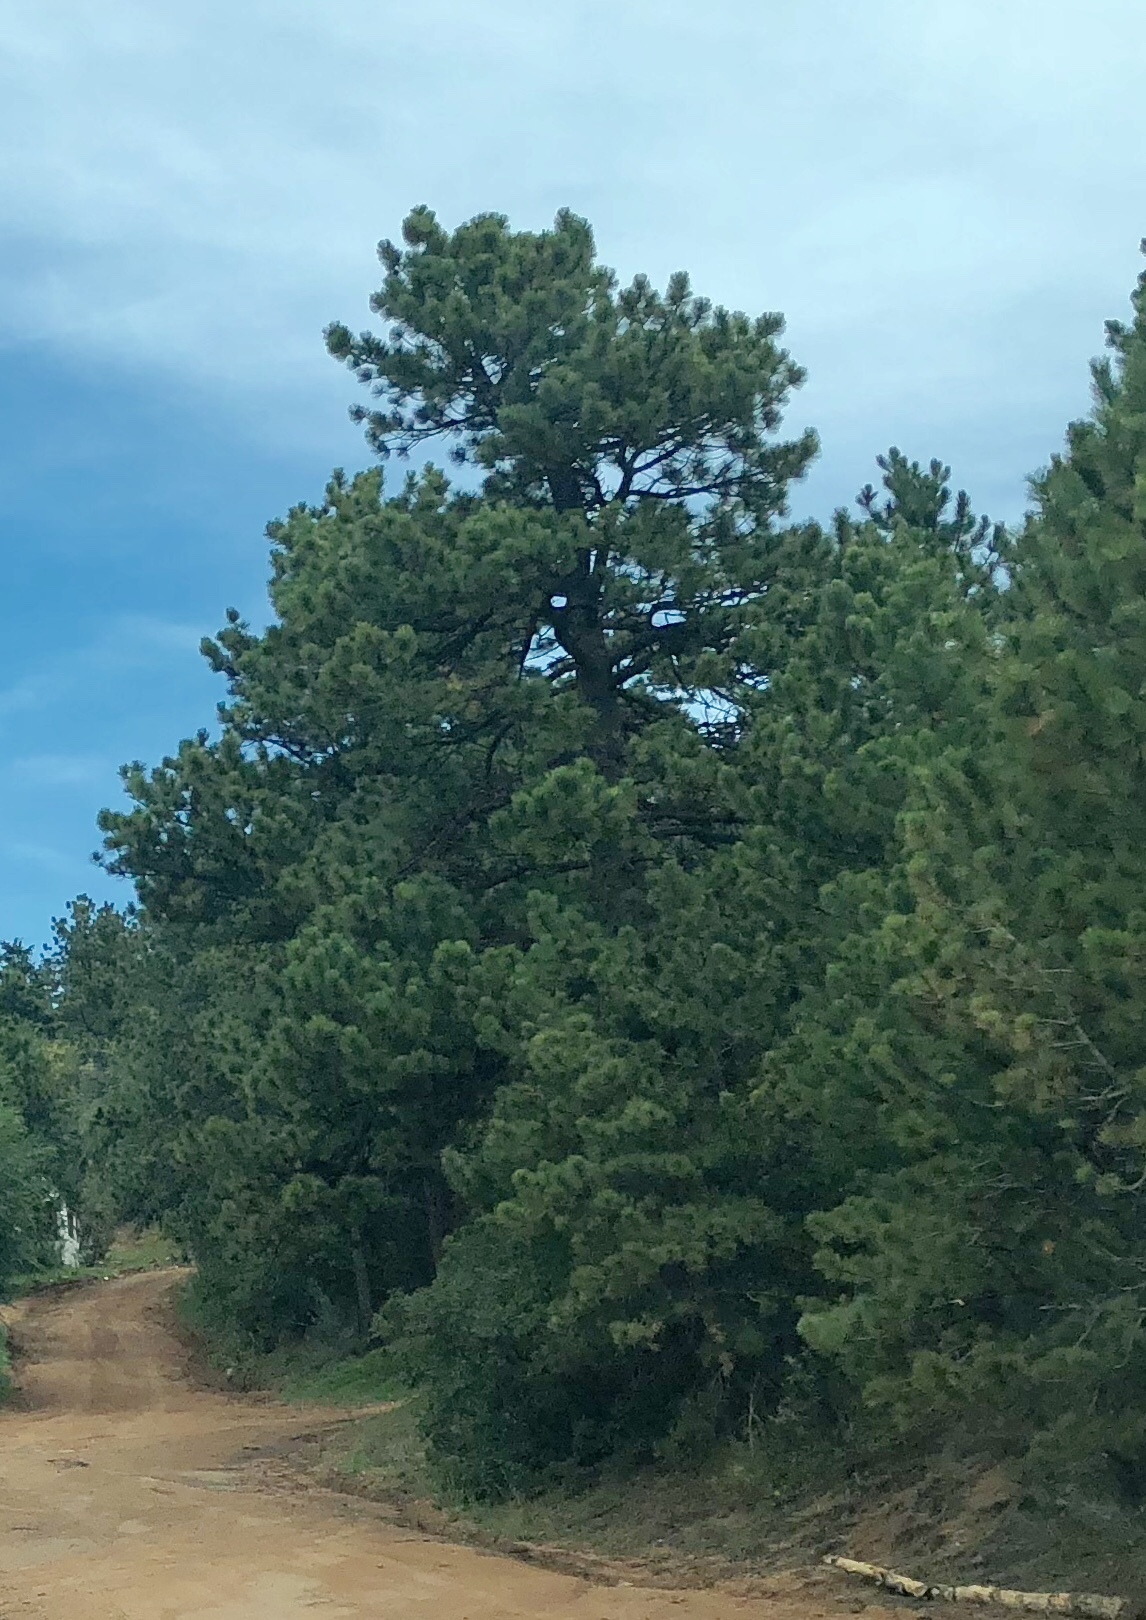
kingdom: Plantae
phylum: Tracheophyta
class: Pinopsida
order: Pinales
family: Pinaceae
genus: Pinus
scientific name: Pinus ponderosa
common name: Western yellow-pine
